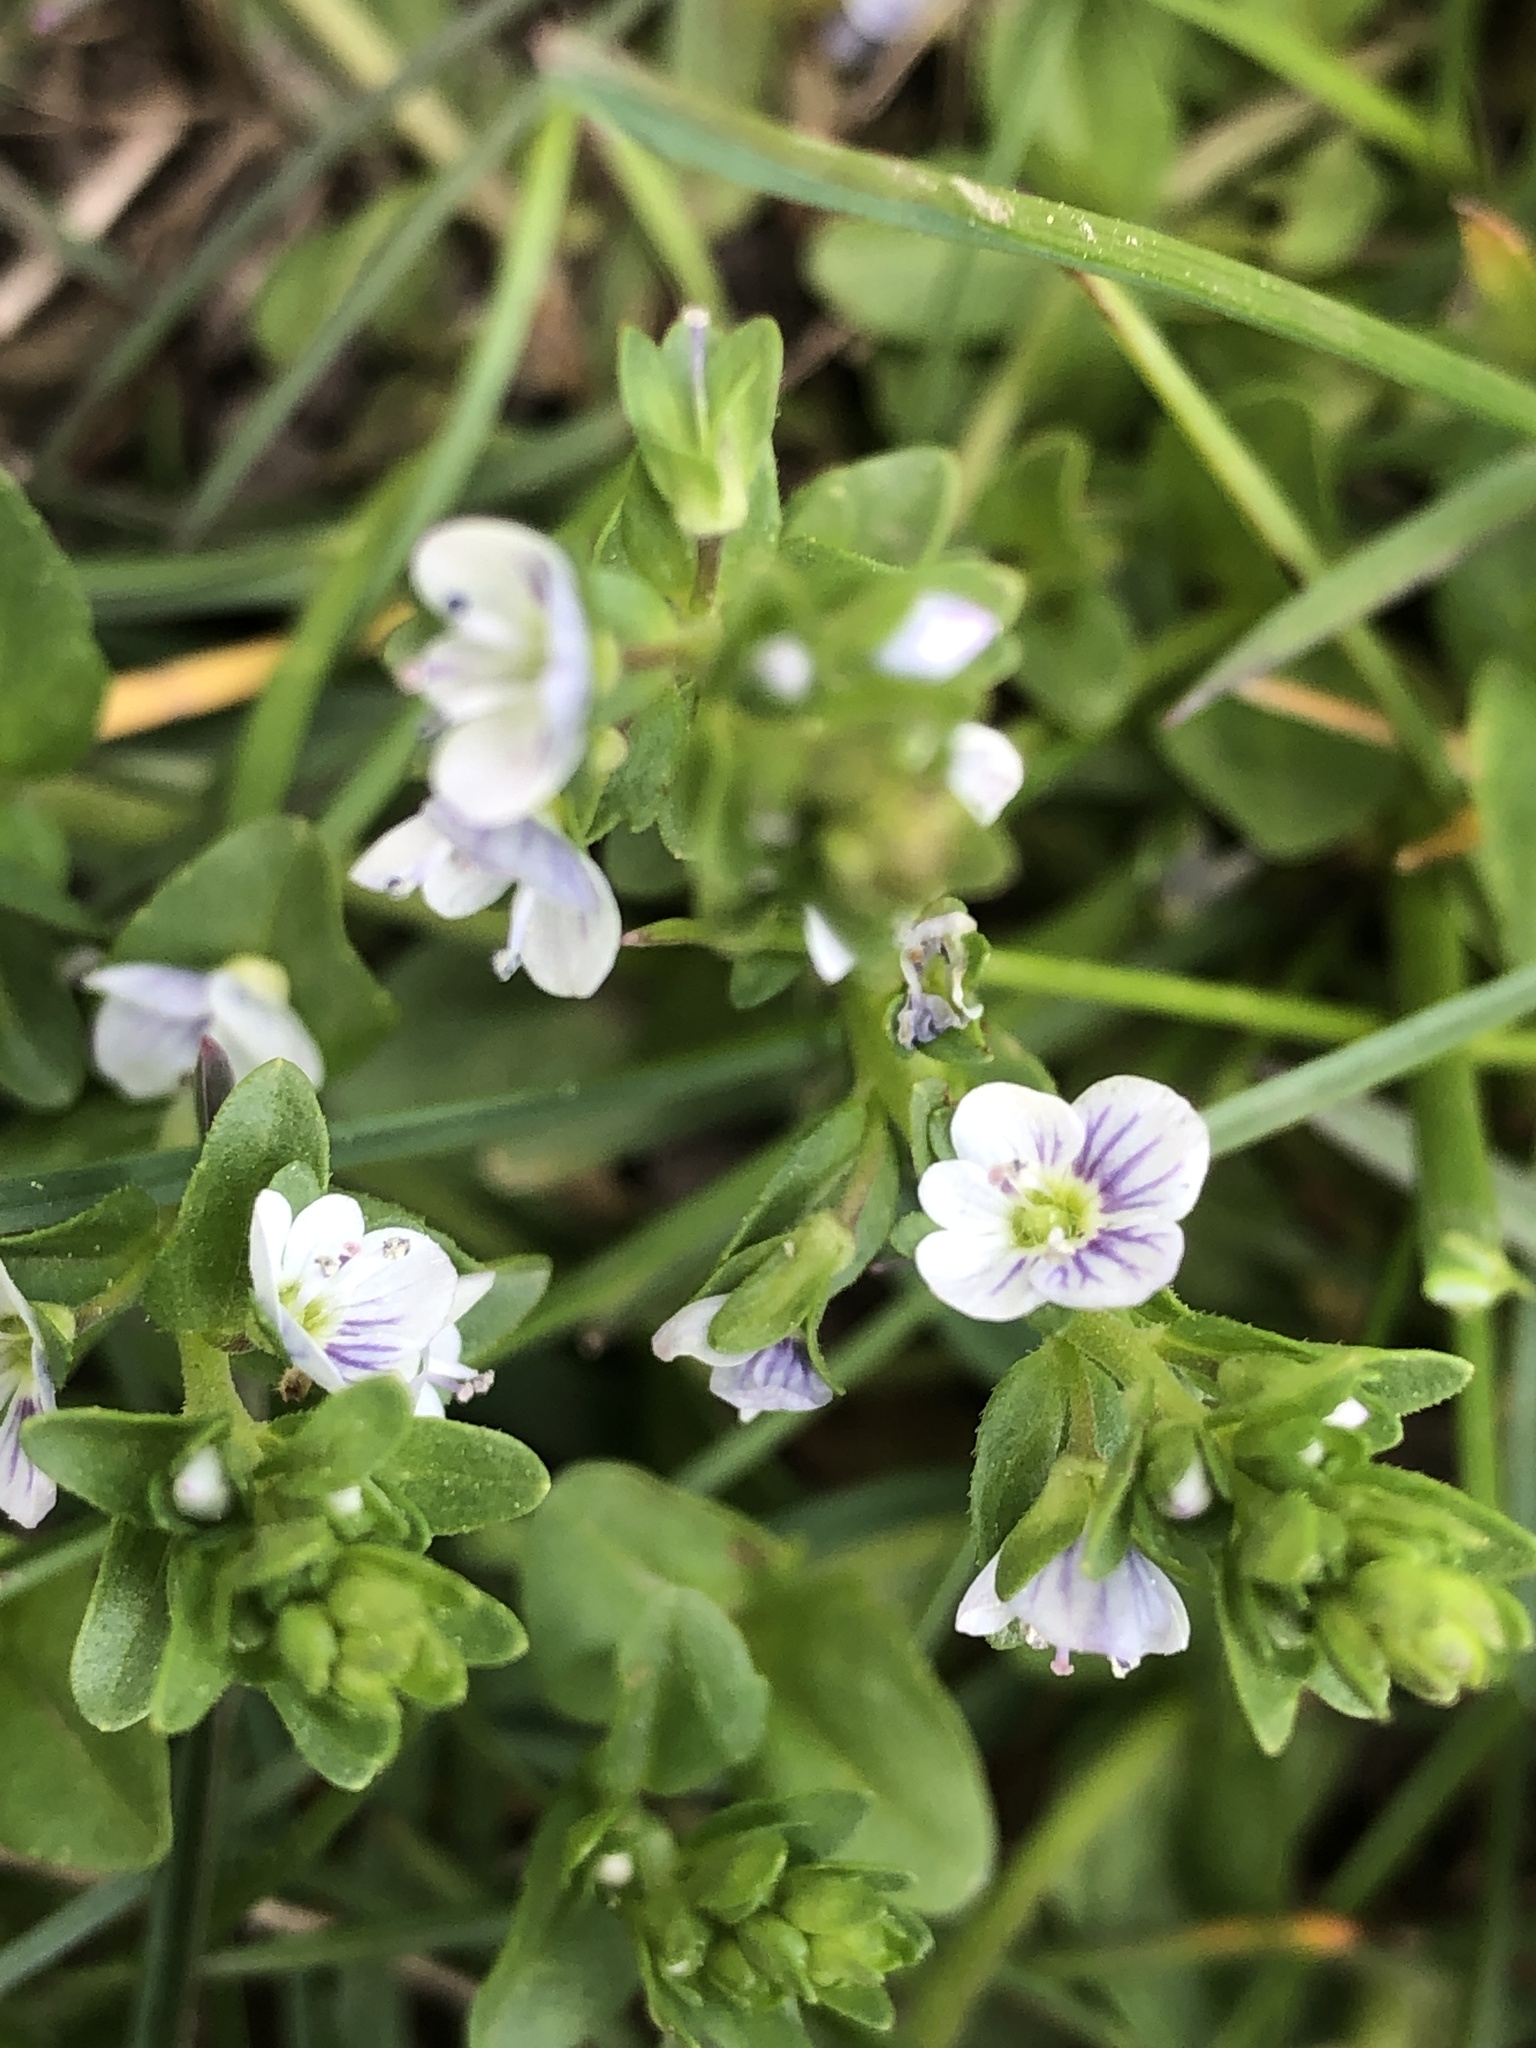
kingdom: Plantae
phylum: Tracheophyta
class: Magnoliopsida
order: Lamiales
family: Plantaginaceae
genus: Veronica
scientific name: Veronica serpyllifolia
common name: Thyme-leaved speedwell
